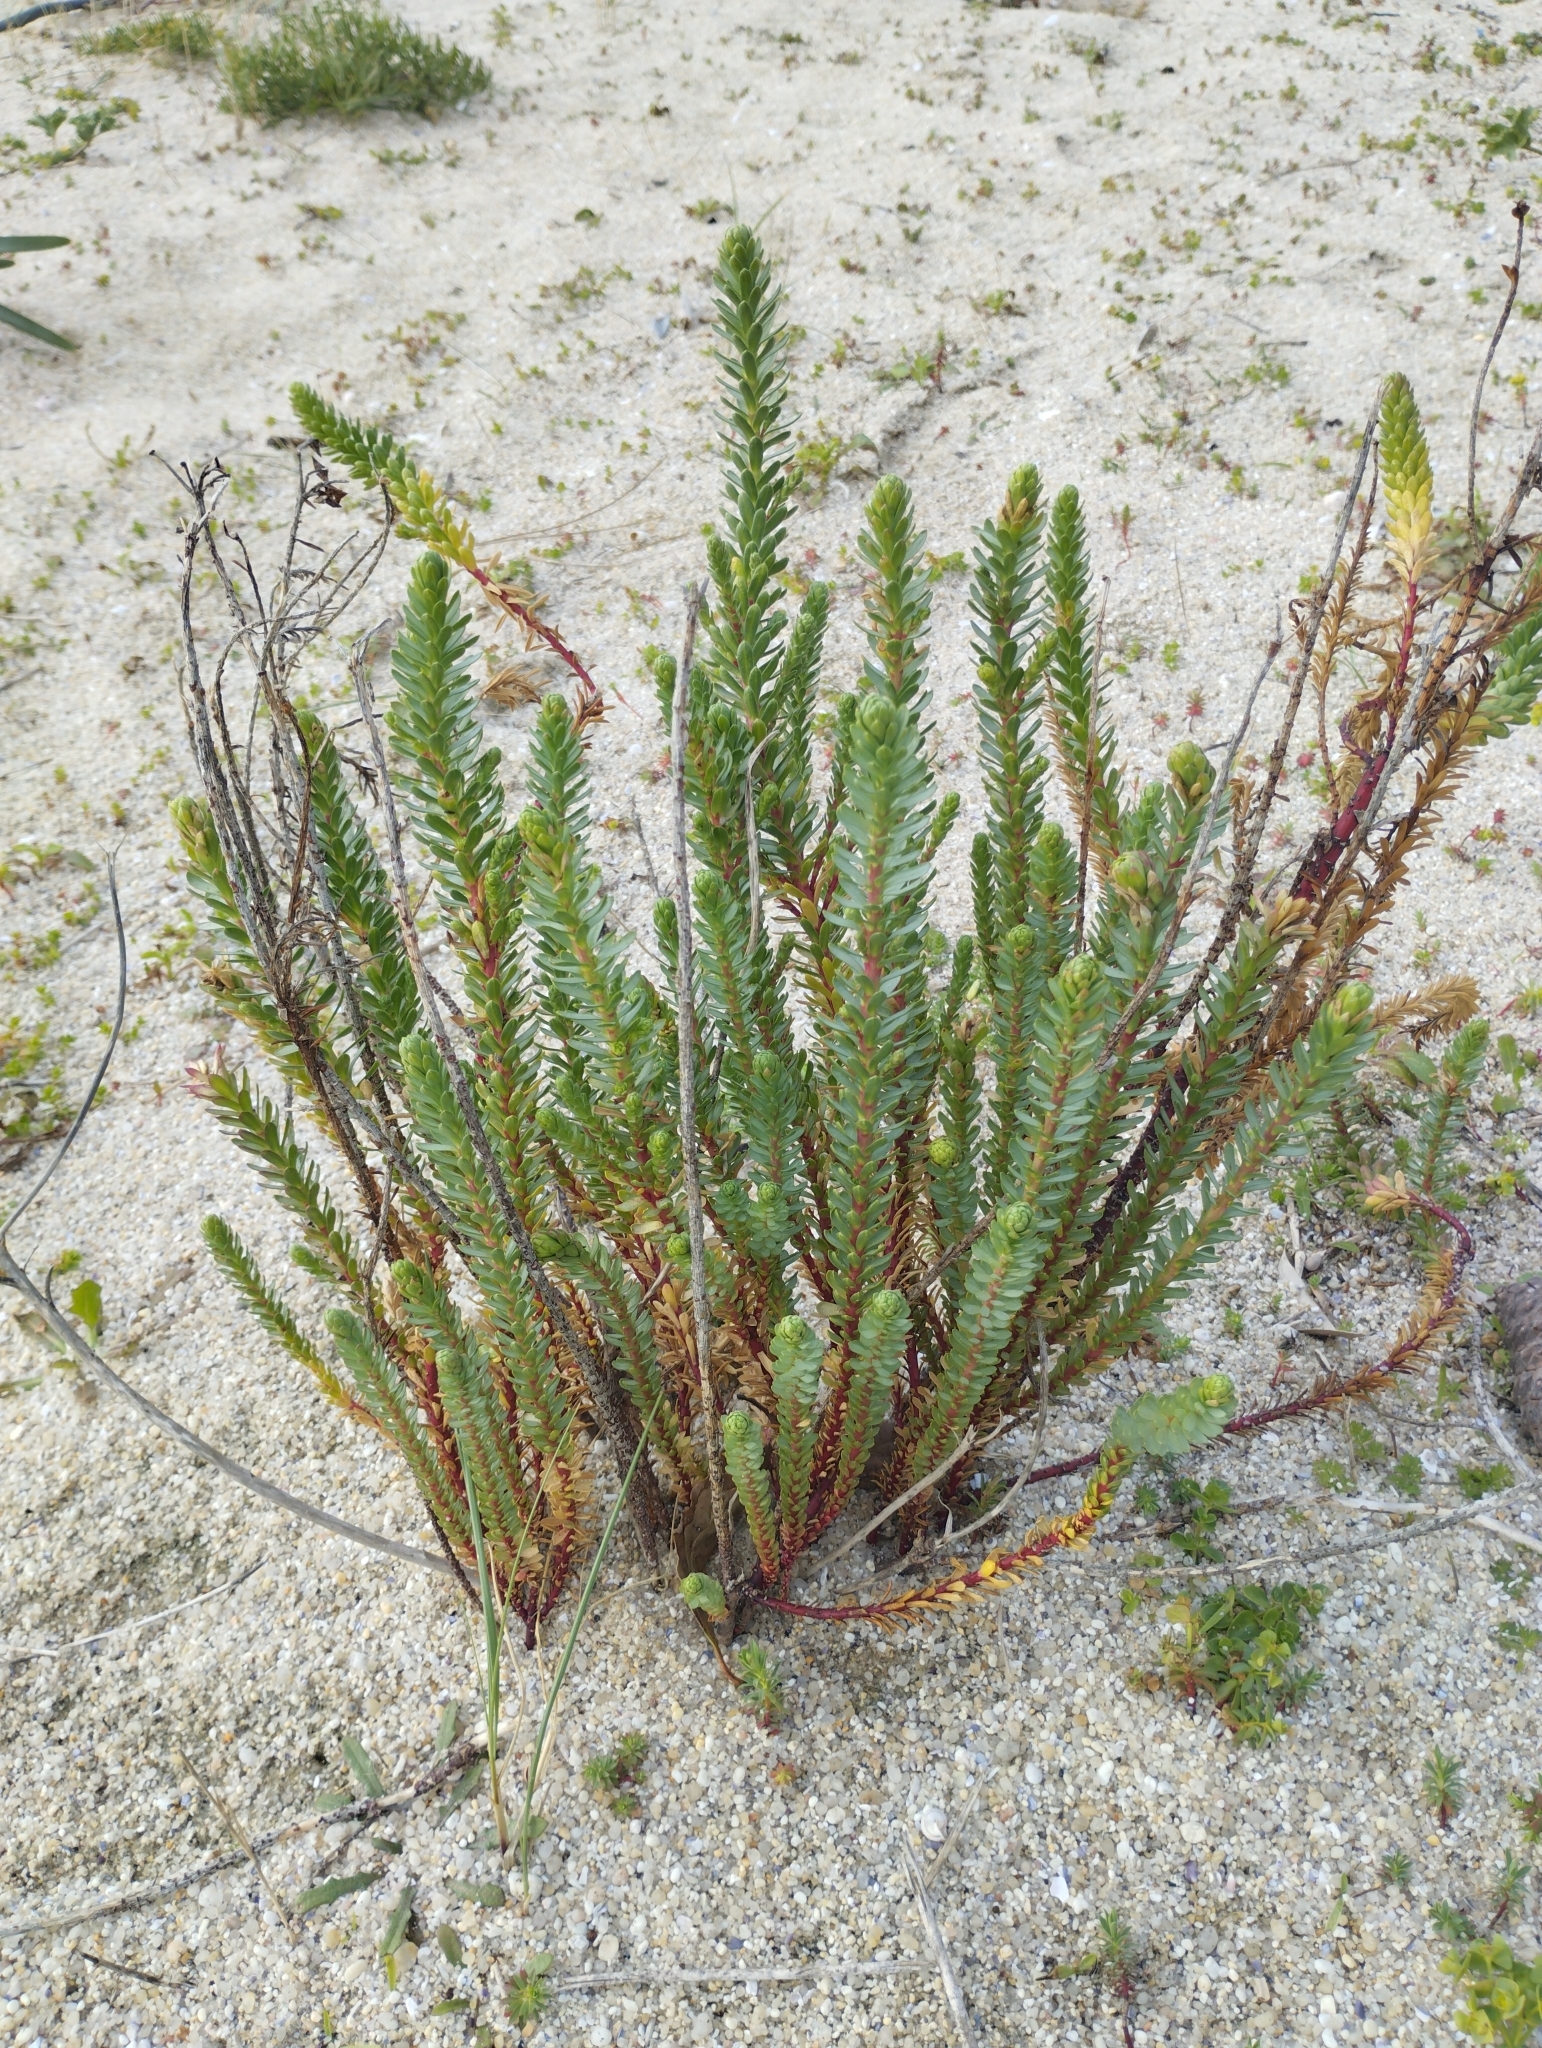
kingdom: Plantae
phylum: Tracheophyta
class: Magnoliopsida
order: Malpighiales
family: Euphorbiaceae
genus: Euphorbia
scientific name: Euphorbia paralias
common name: Sea spurge
